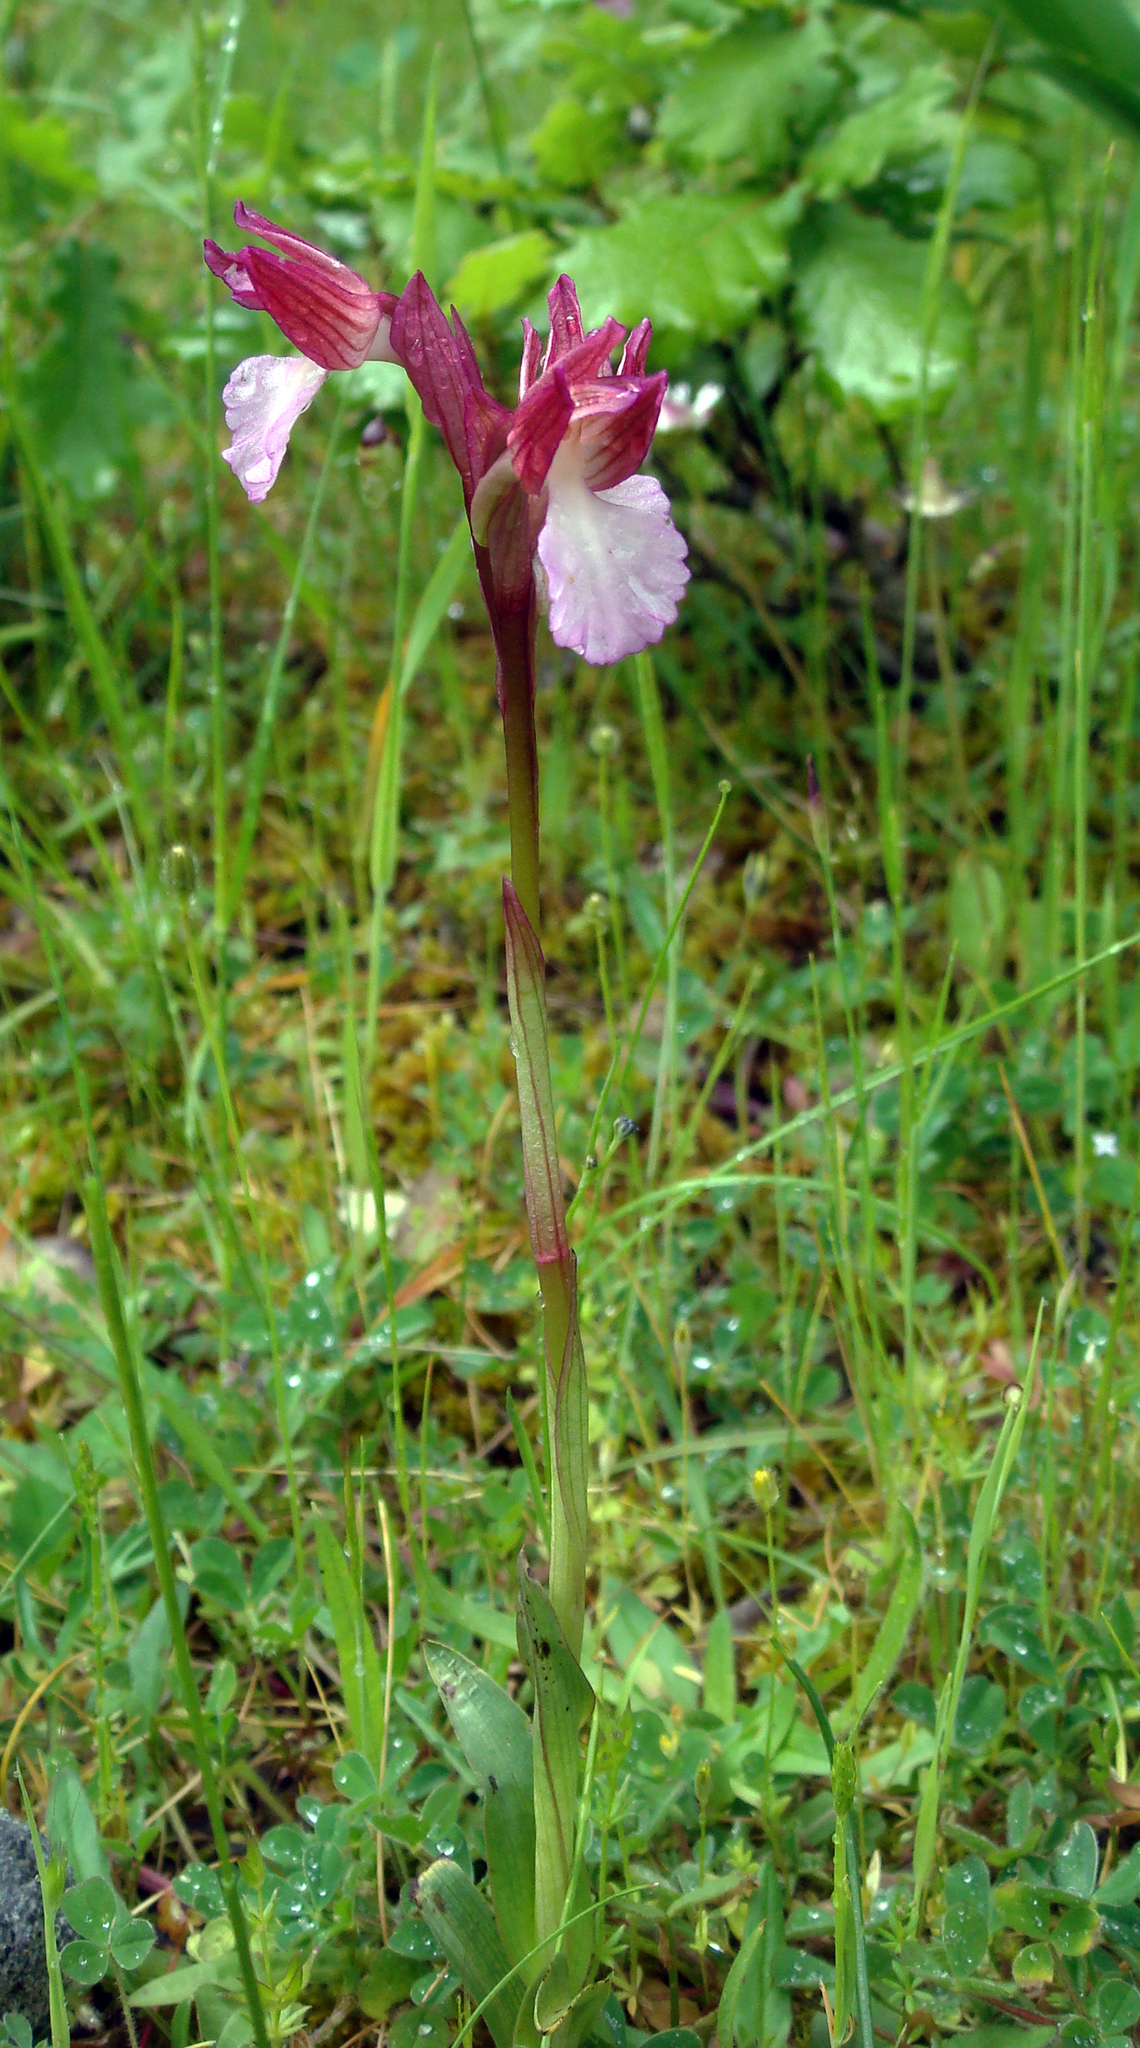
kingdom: Plantae
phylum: Tracheophyta
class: Liliopsida
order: Asparagales
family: Orchidaceae
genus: Anacamptis
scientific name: Anacamptis papilionacea
